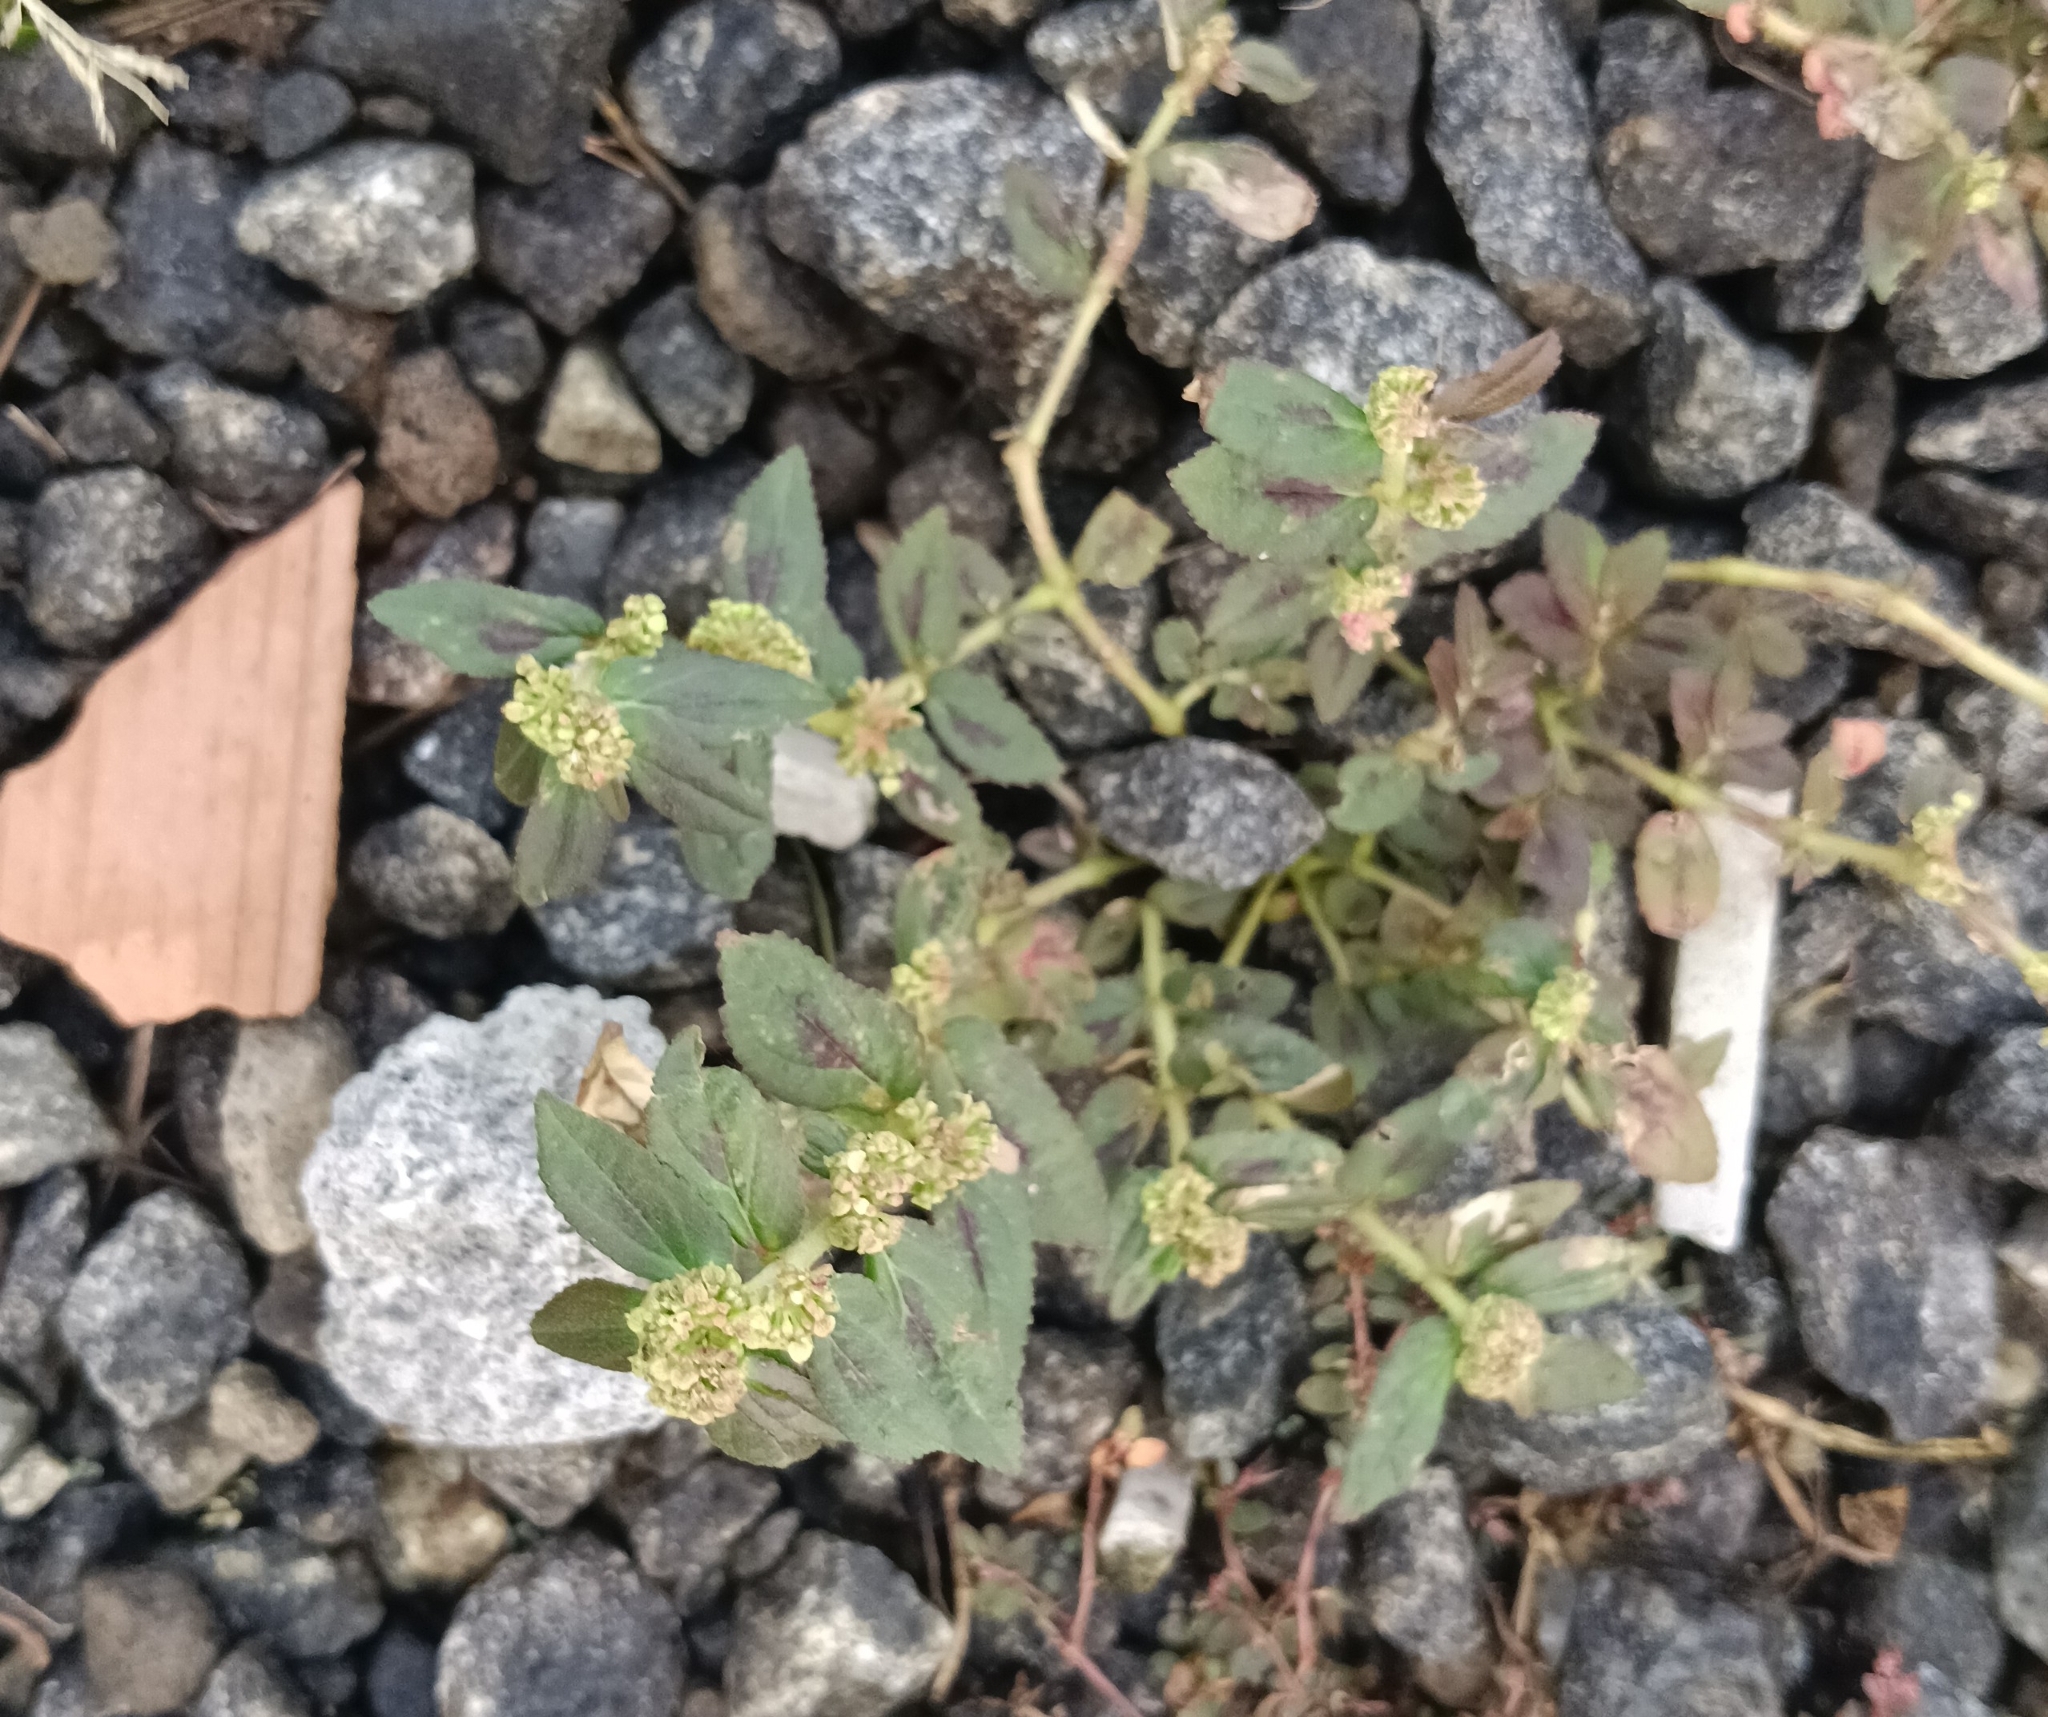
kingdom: Plantae
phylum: Tracheophyta
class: Magnoliopsida
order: Malpighiales
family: Euphorbiaceae
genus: Euphorbia
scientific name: Euphorbia hirta
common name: Pillpod sandmat
